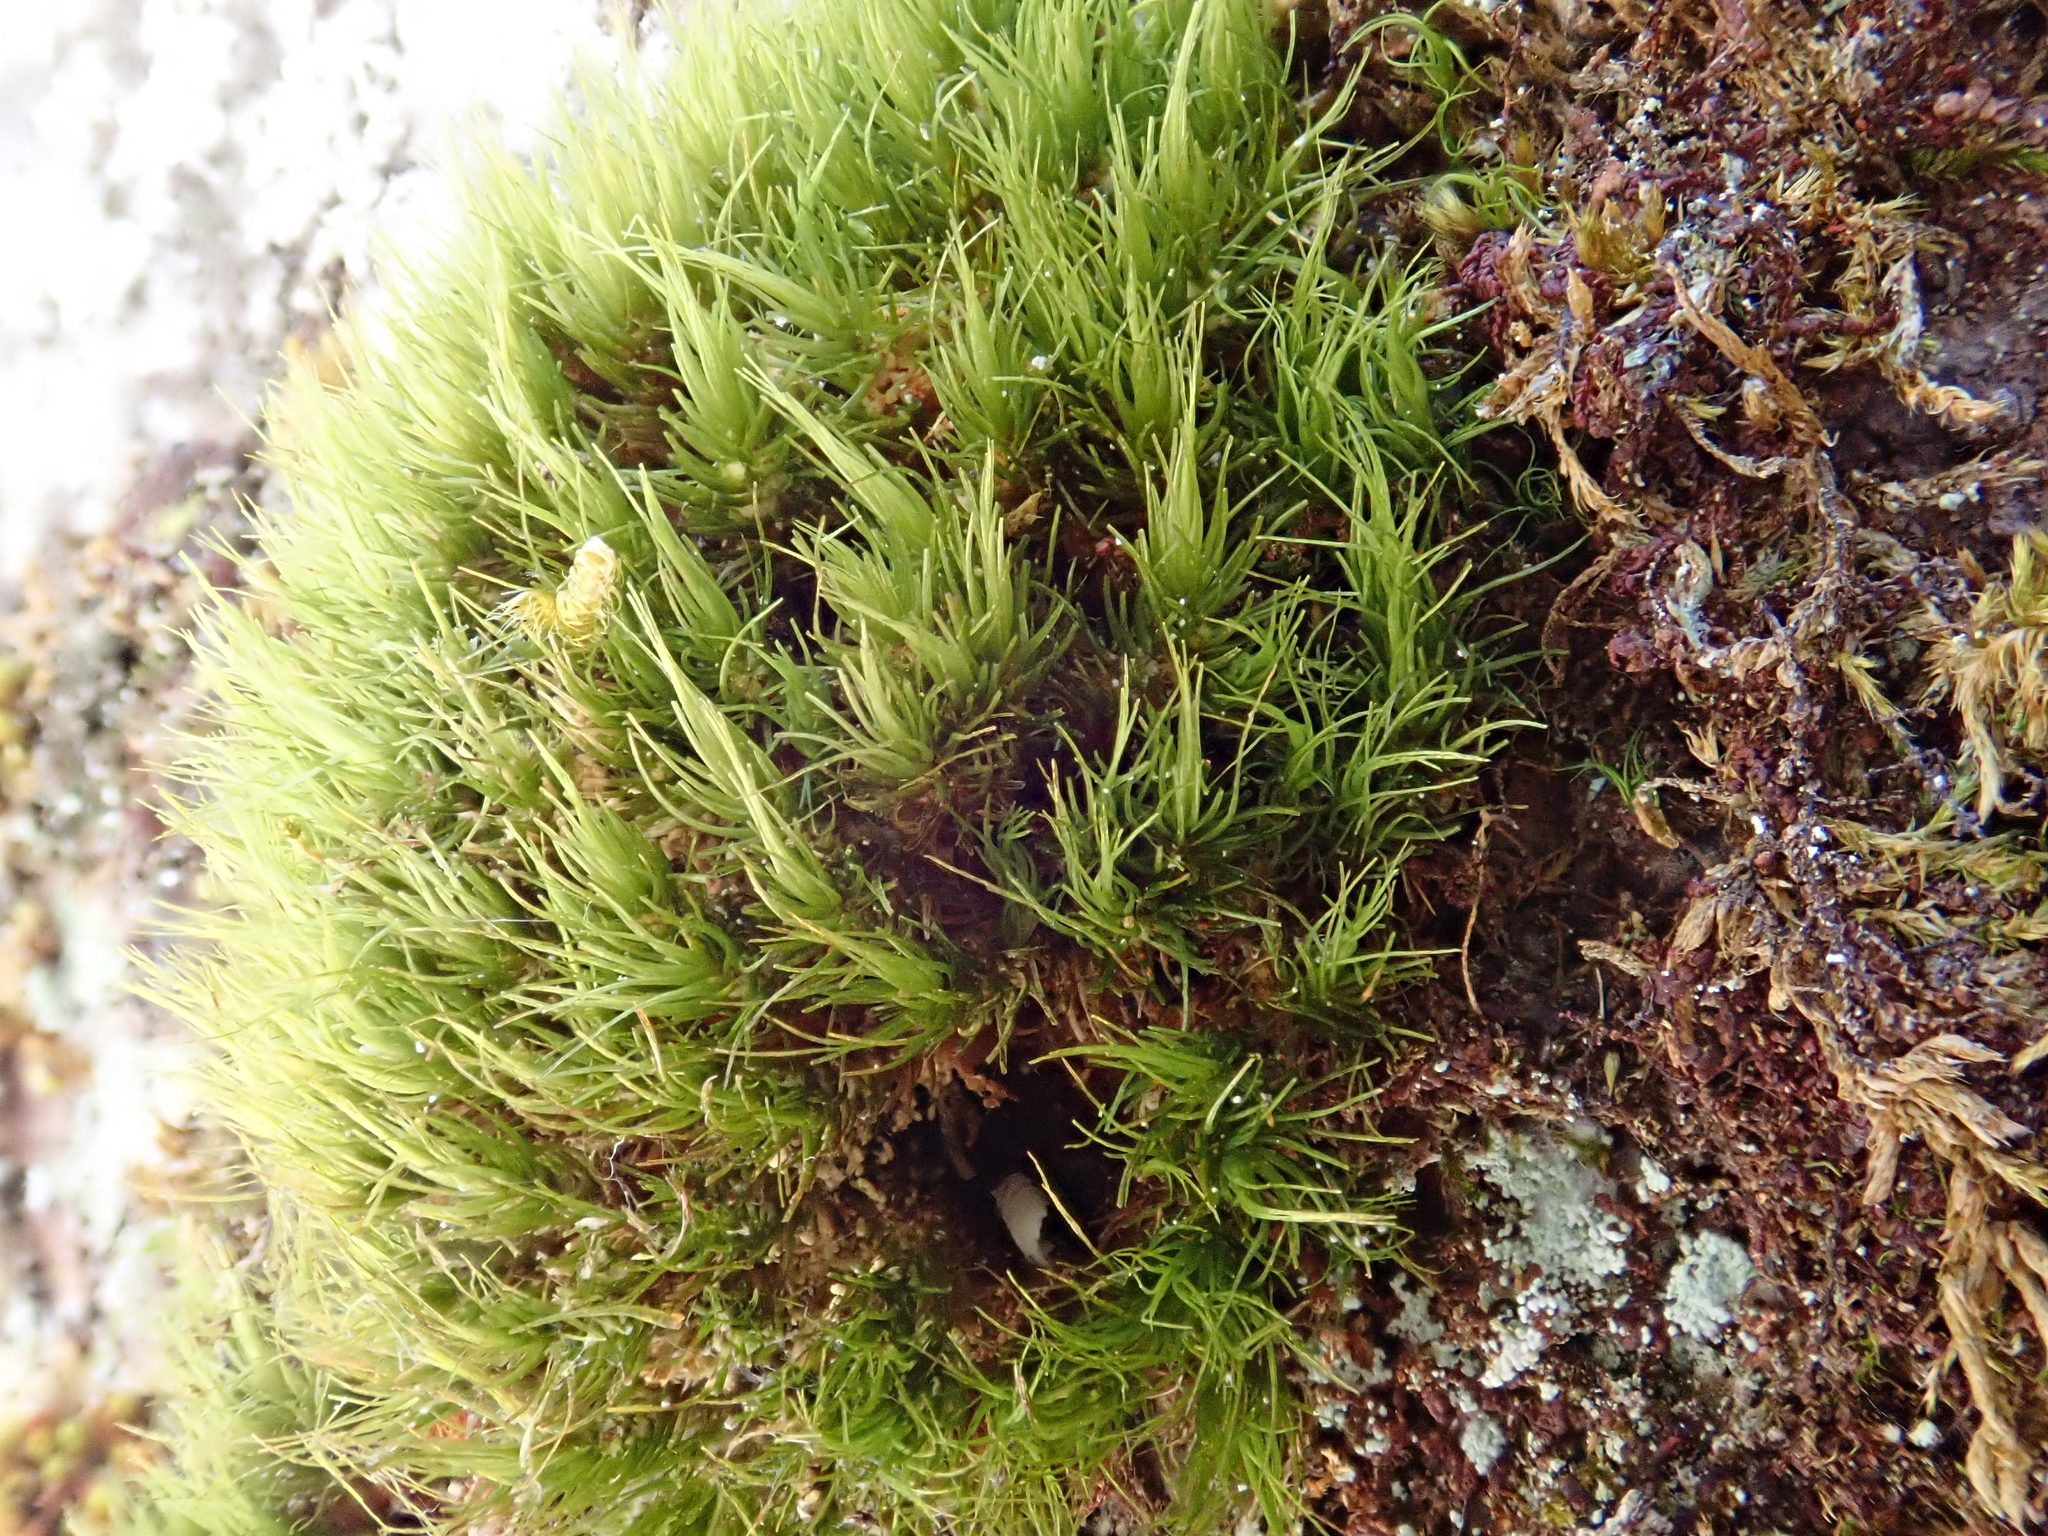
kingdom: Plantae
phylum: Bryophyta
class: Bryopsida
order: Dicranales
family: Dicranaceae
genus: Dicranum
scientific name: Dicranum viride
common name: Green broom moss
